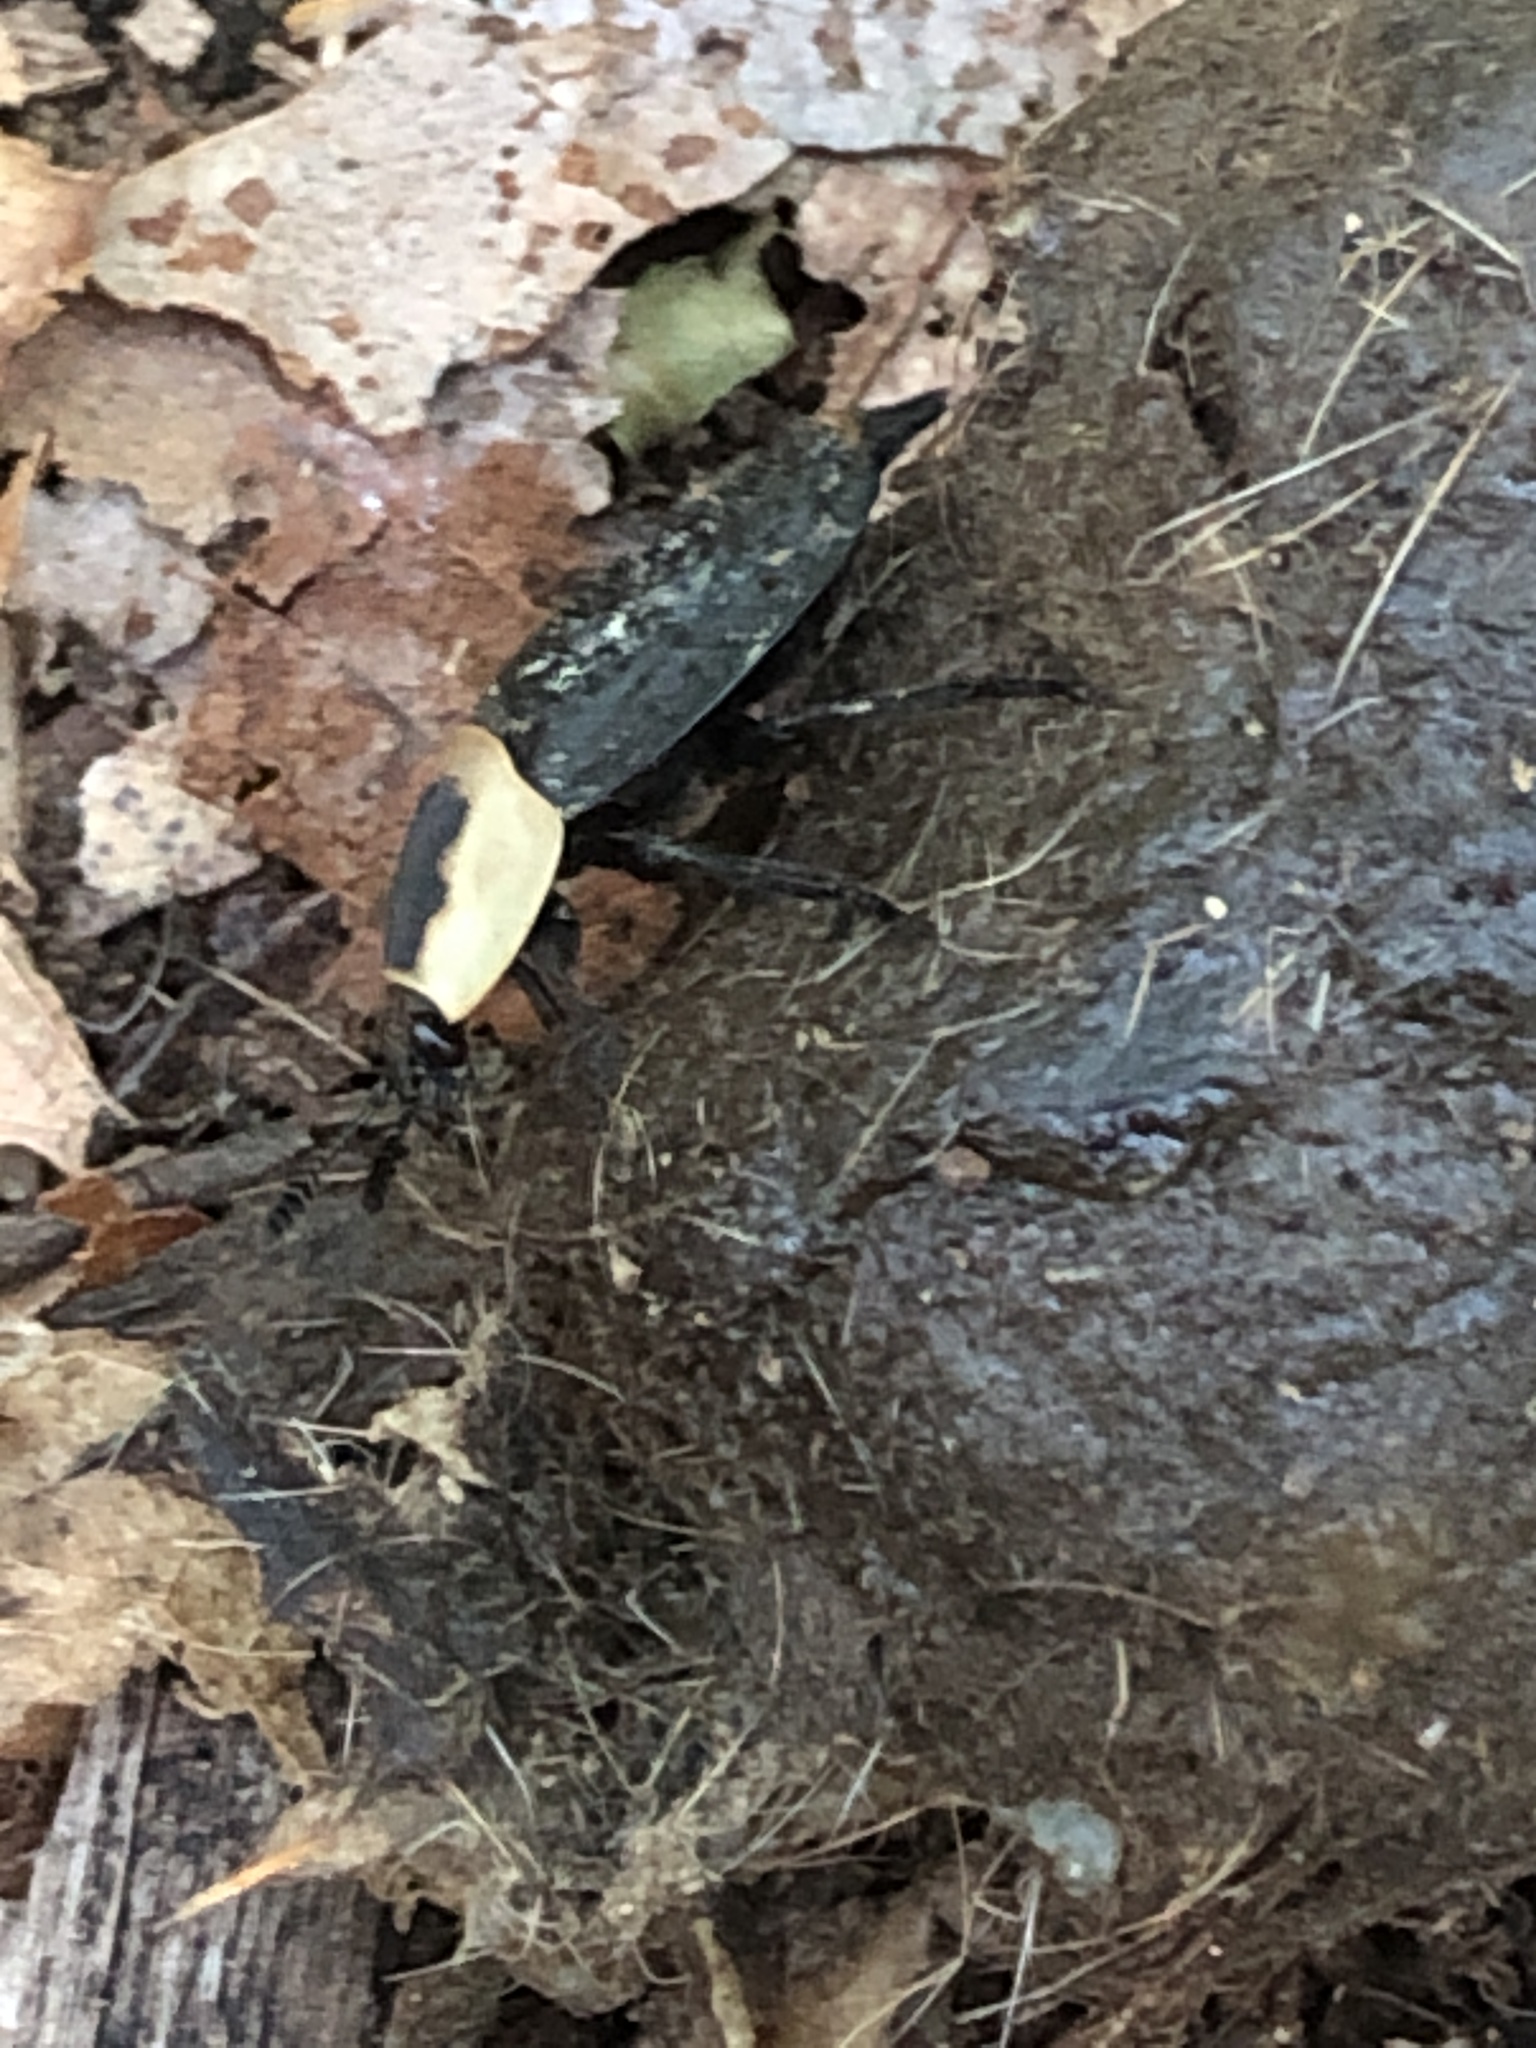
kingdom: Animalia
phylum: Arthropoda
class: Insecta
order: Coleoptera
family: Staphylinidae
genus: Necrophila
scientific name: Necrophila americana
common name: American carrion beetle
